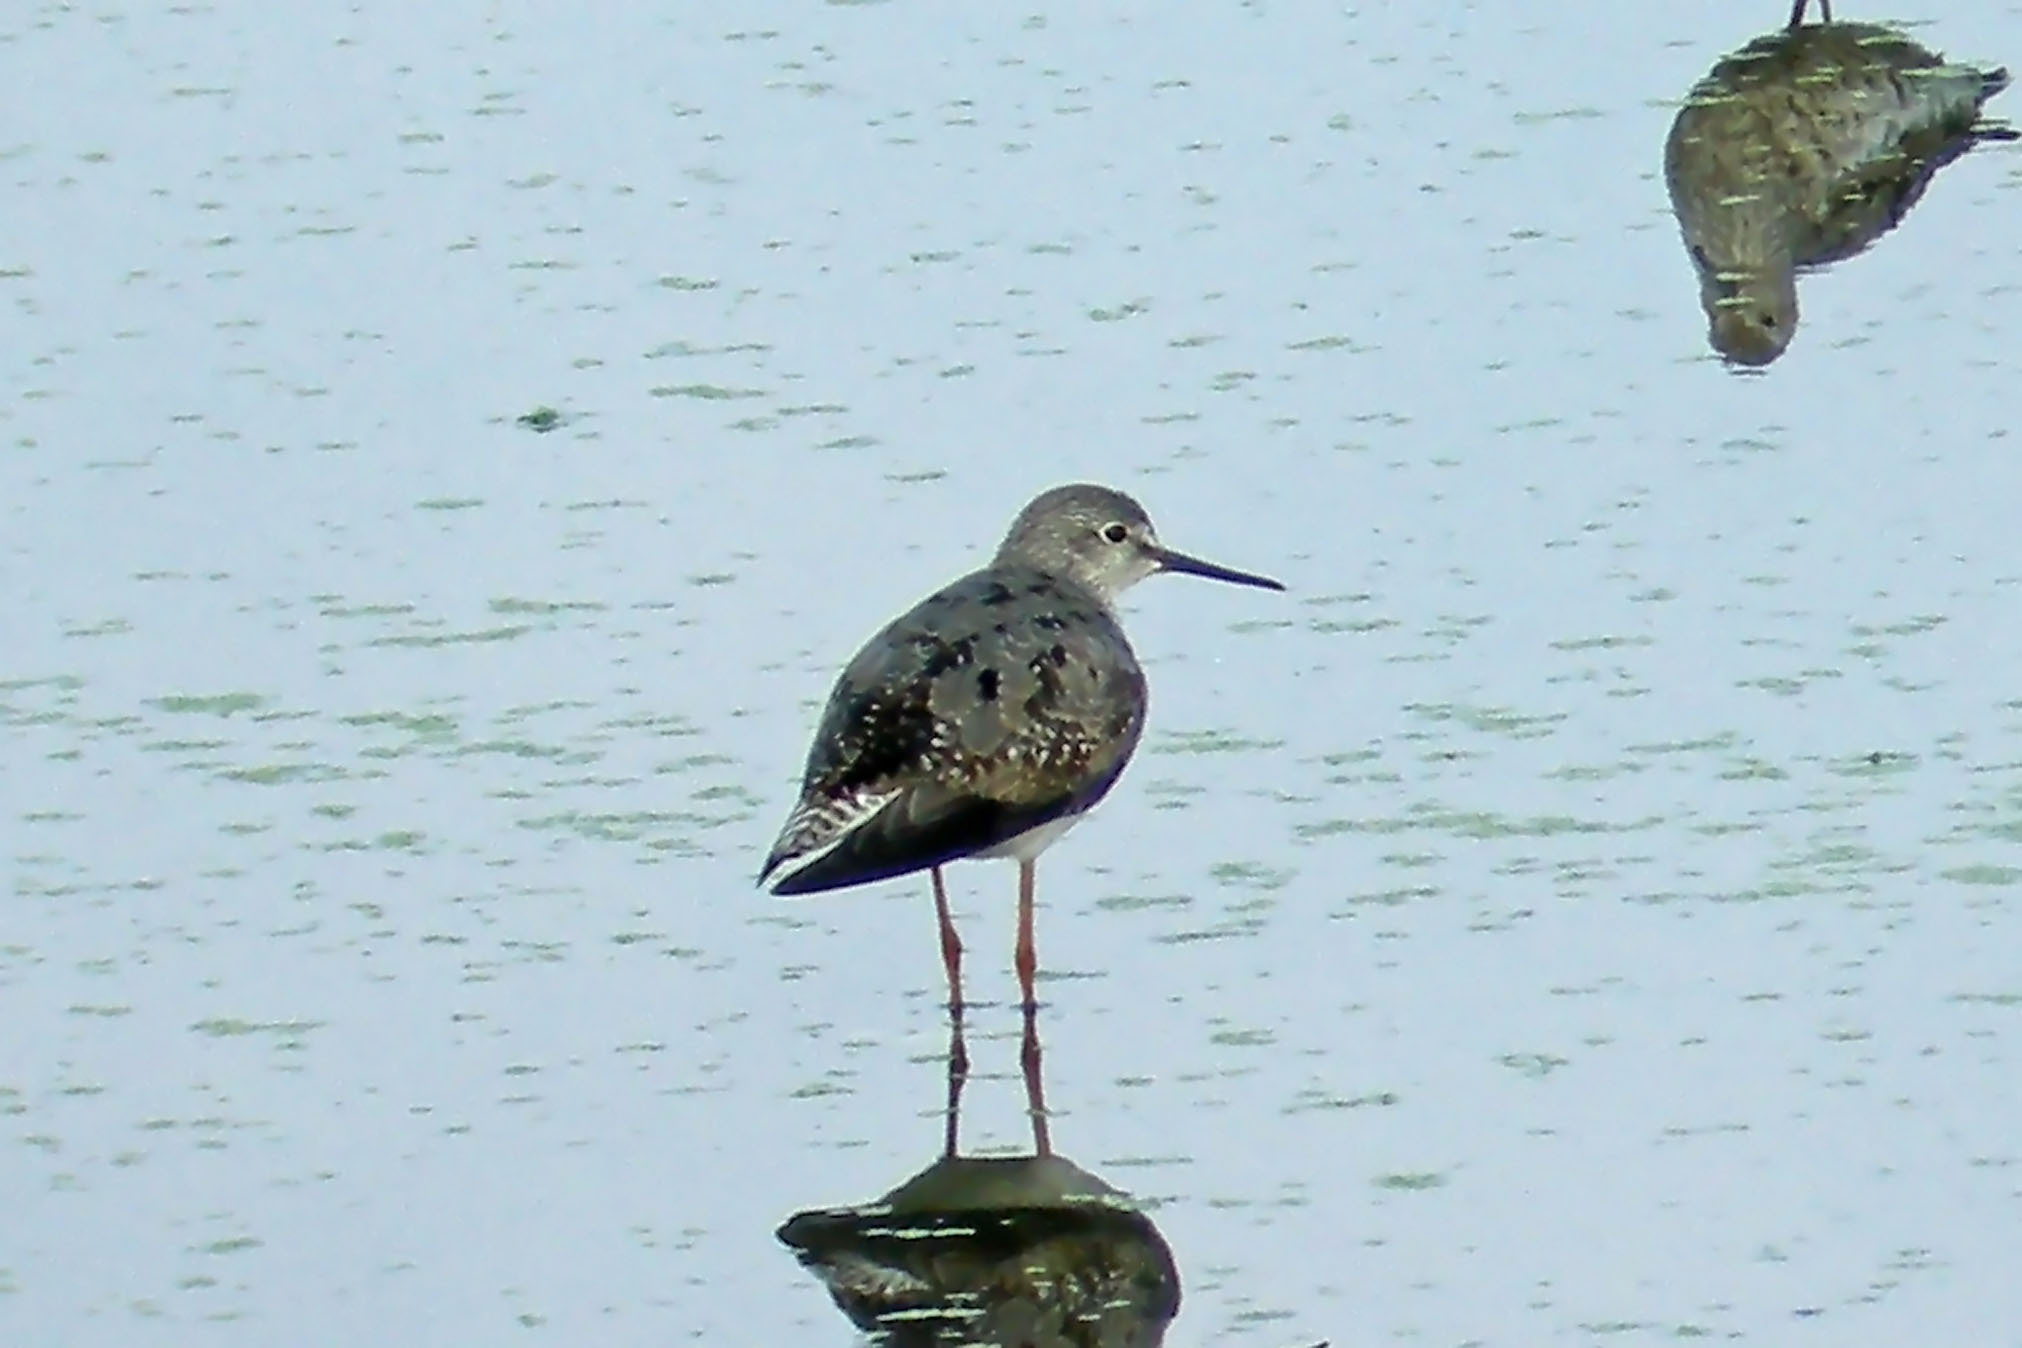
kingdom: Animalia
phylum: Chordata
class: Aves
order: Charadriiformes
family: Scolopacidae
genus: Tringa
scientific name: Tringa flavipes
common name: Lesser yellowlegs
